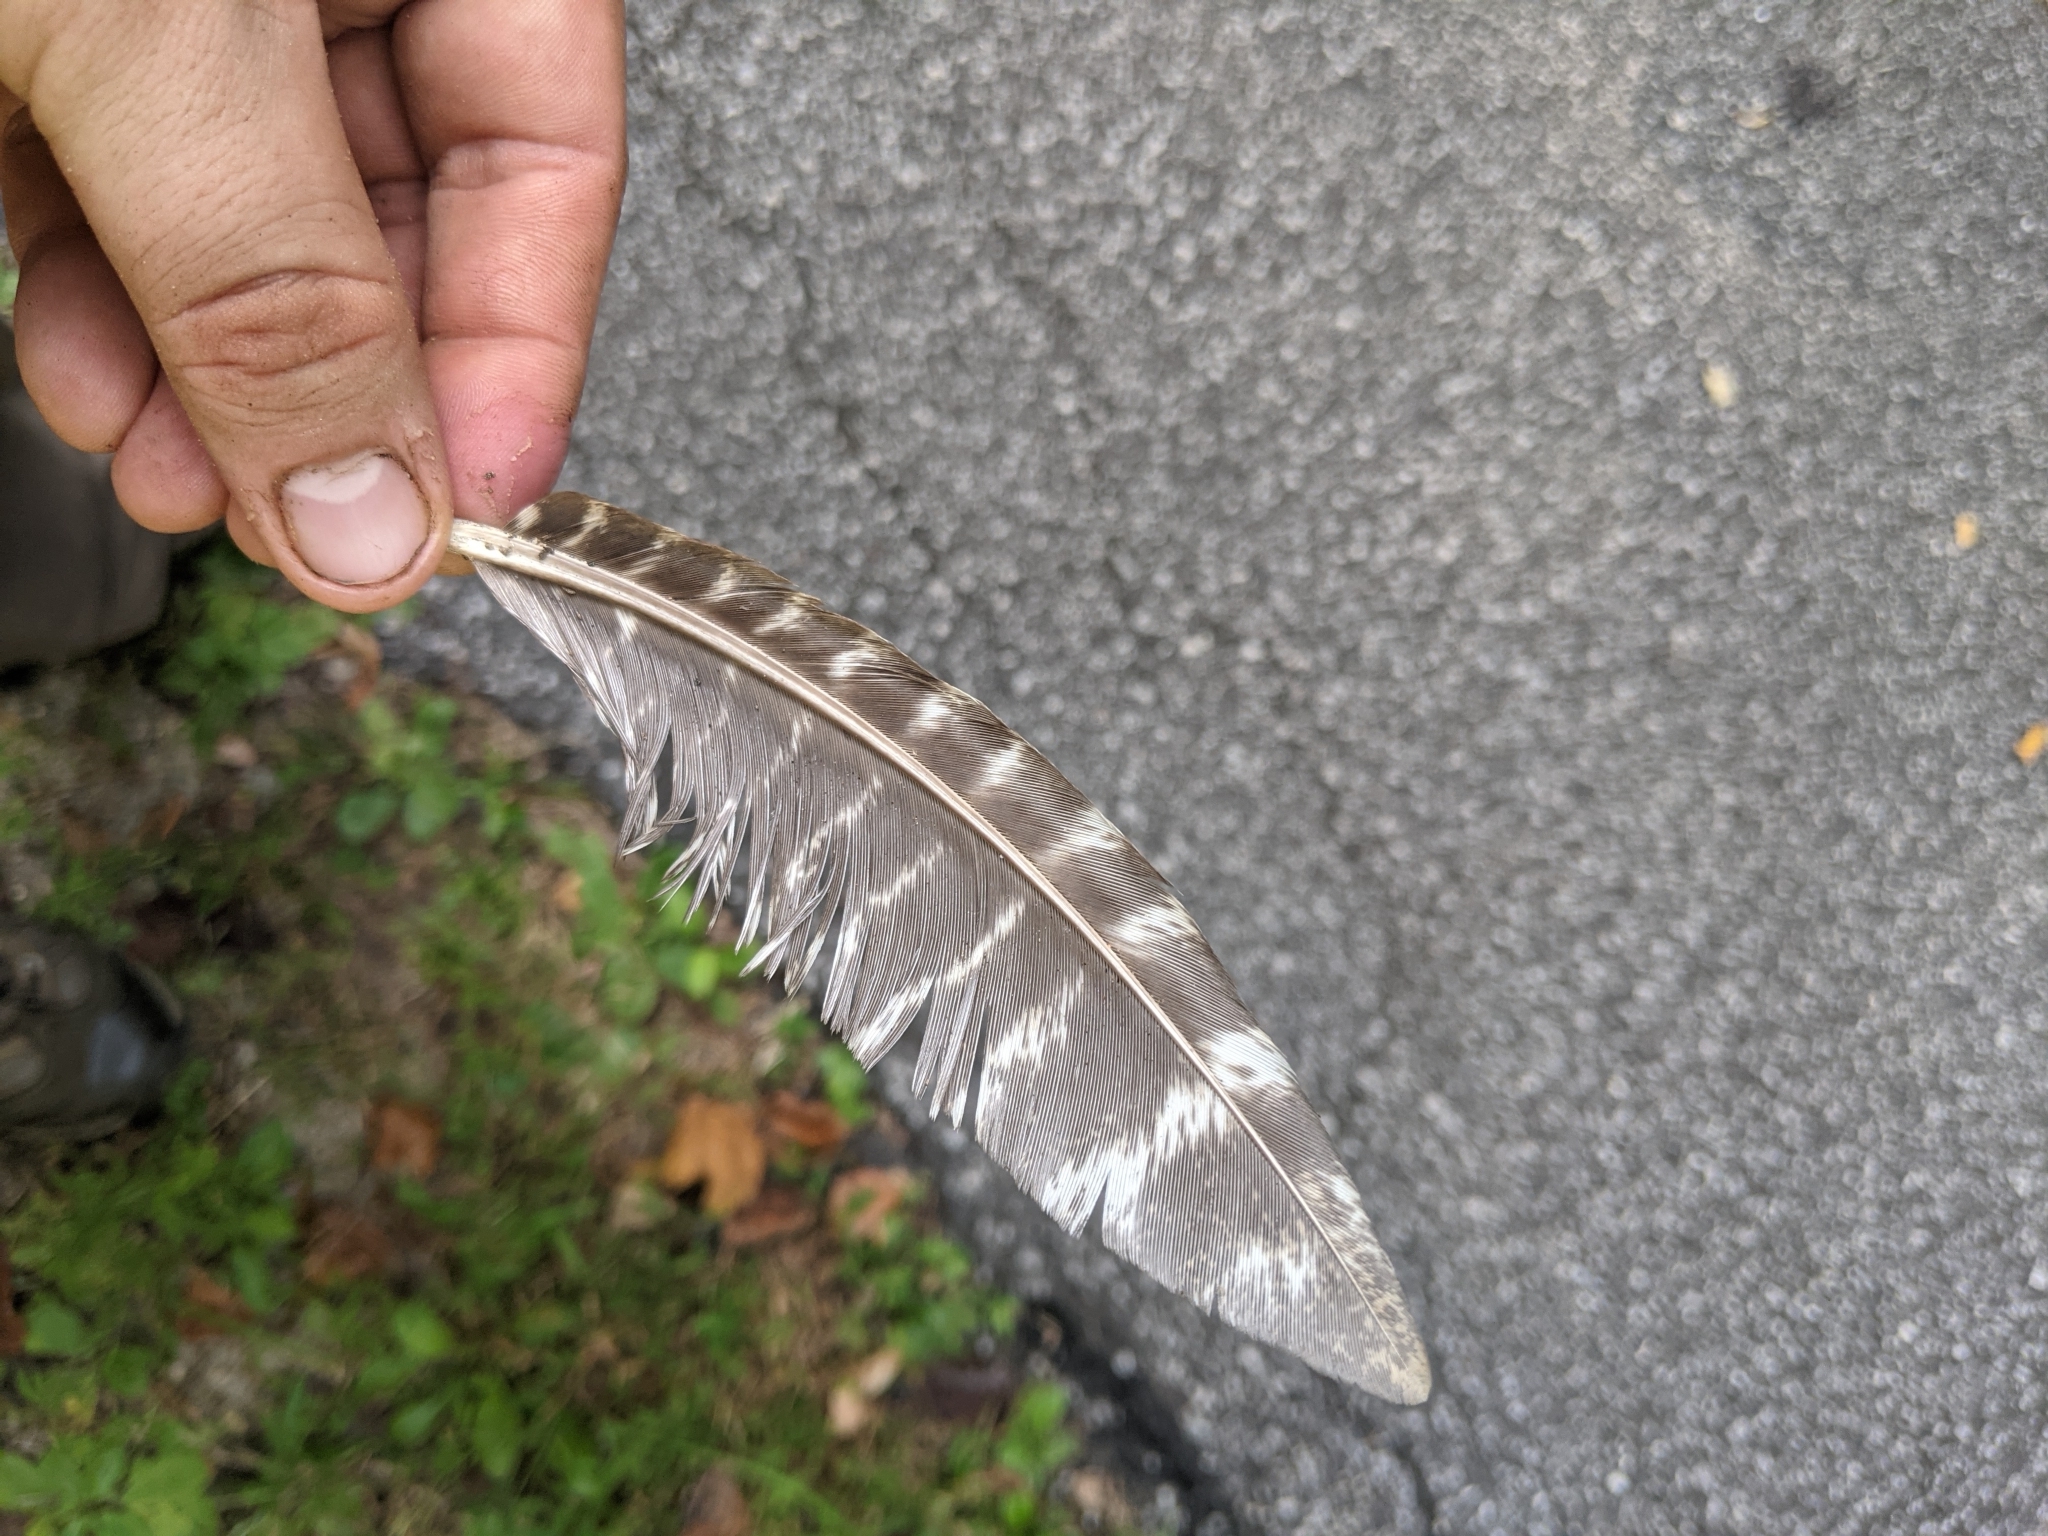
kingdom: Animalia
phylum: Chordata
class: Aves
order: Galliformes
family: Phasianidae
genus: Meleagris
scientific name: Meleagris gallopavo
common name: Wild turkey
